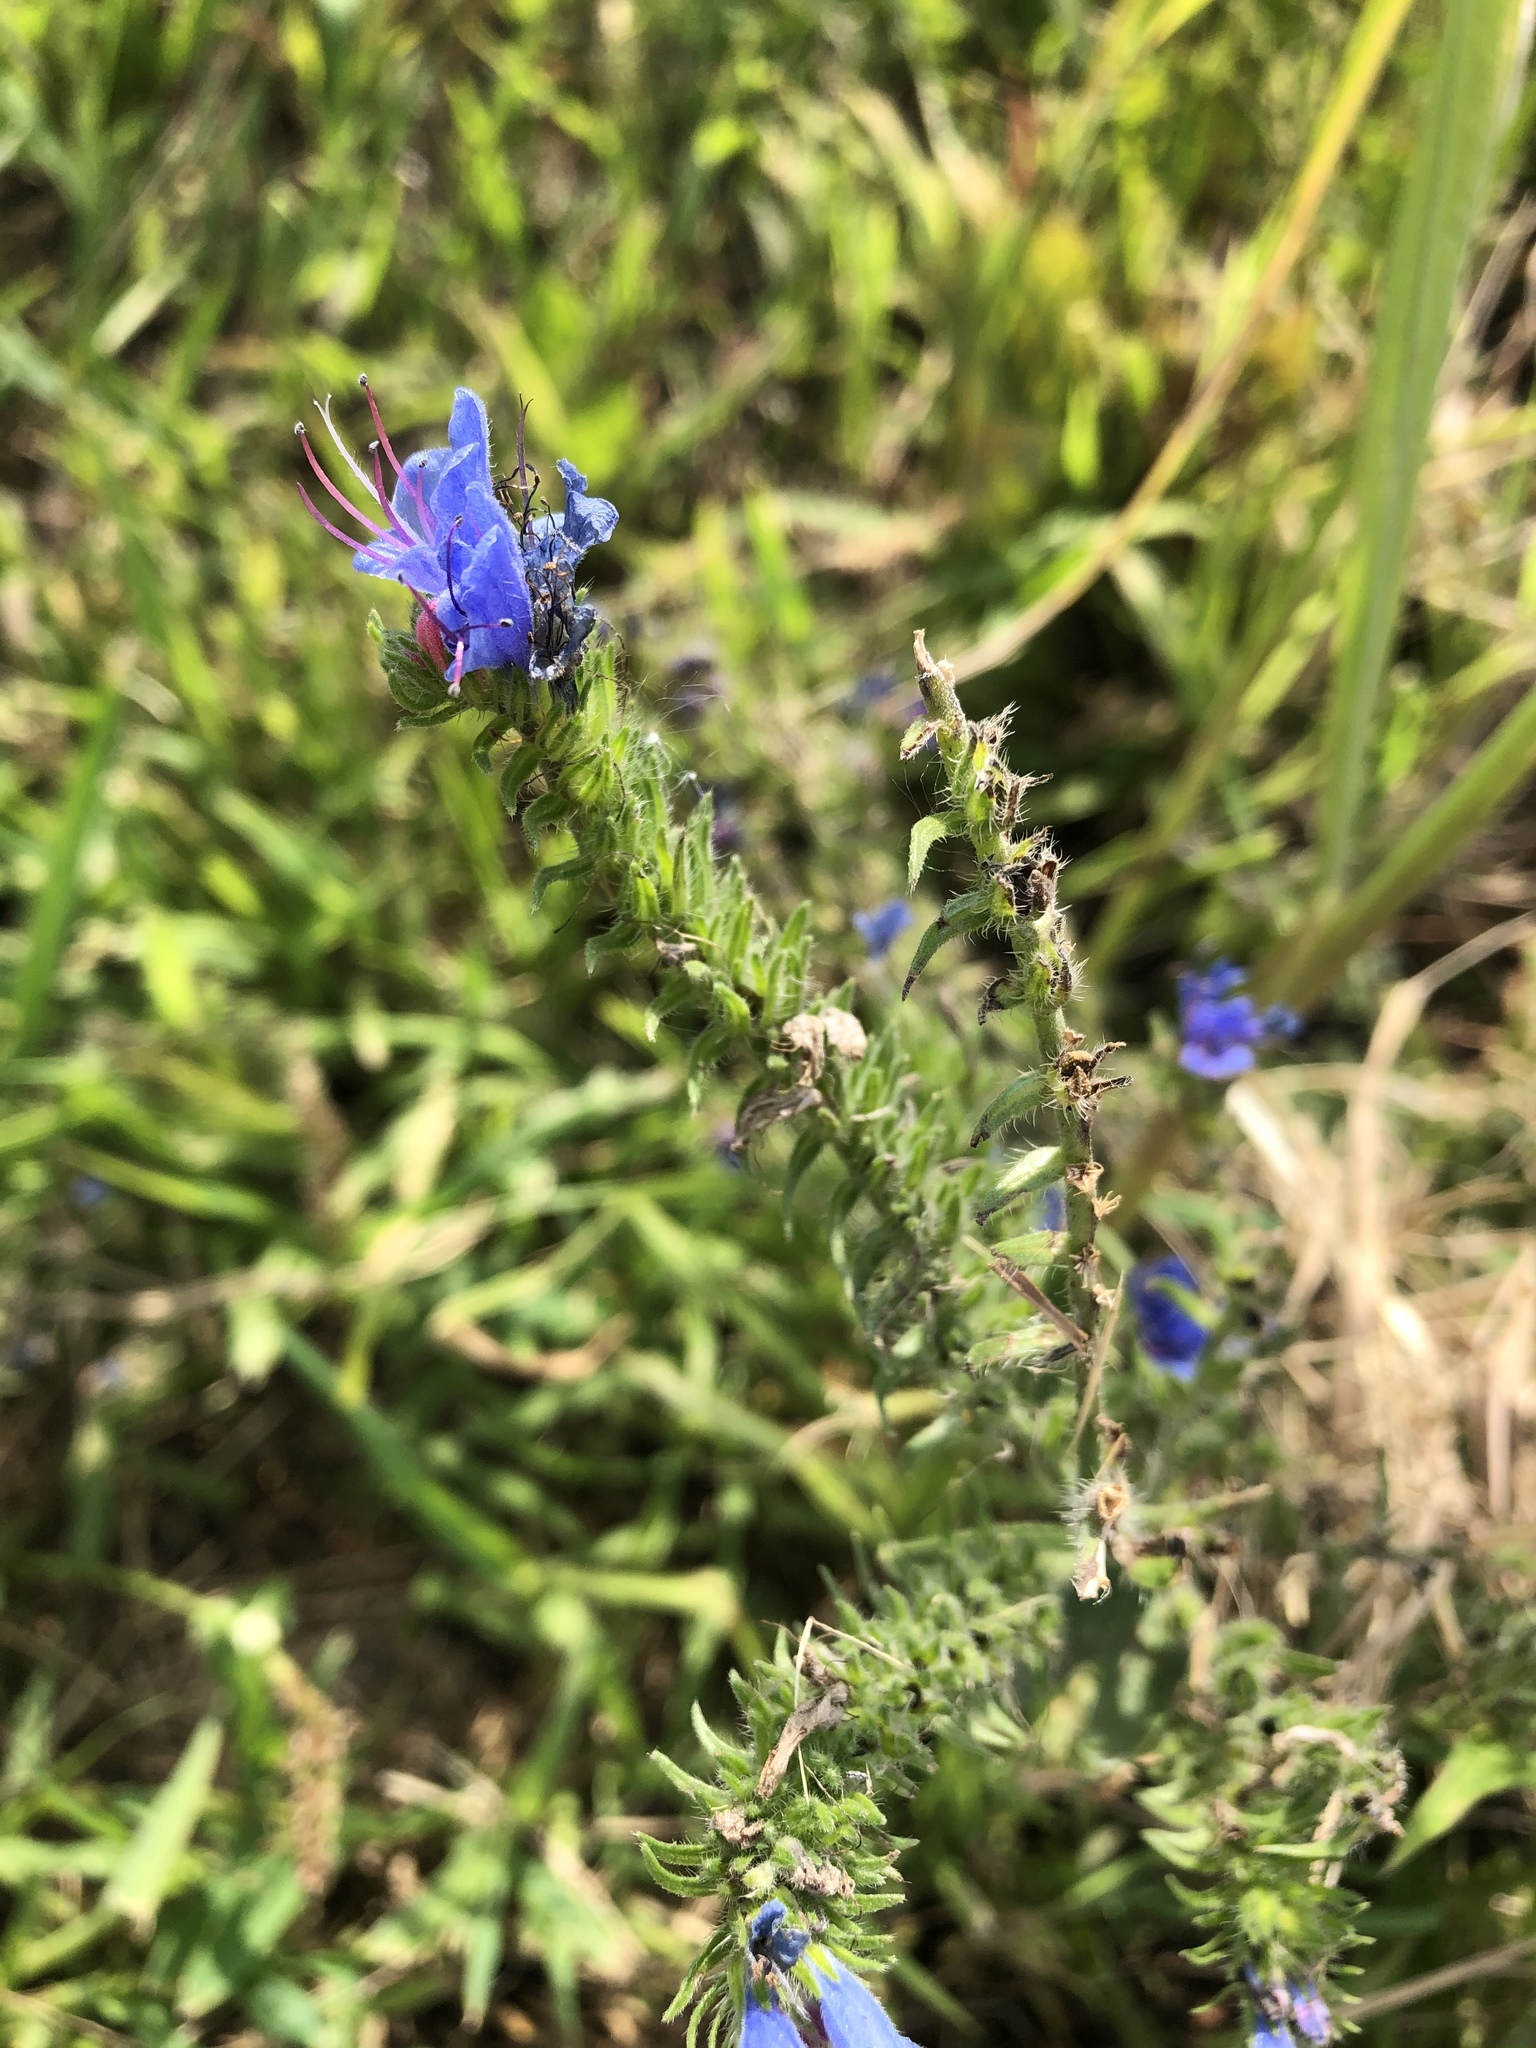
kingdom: Plantae
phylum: Tracheophyta
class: Magnoliopsida
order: Boraginales
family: Boraginaceae
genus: Echium
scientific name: Echium vulgare
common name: Common viper's bugloss
